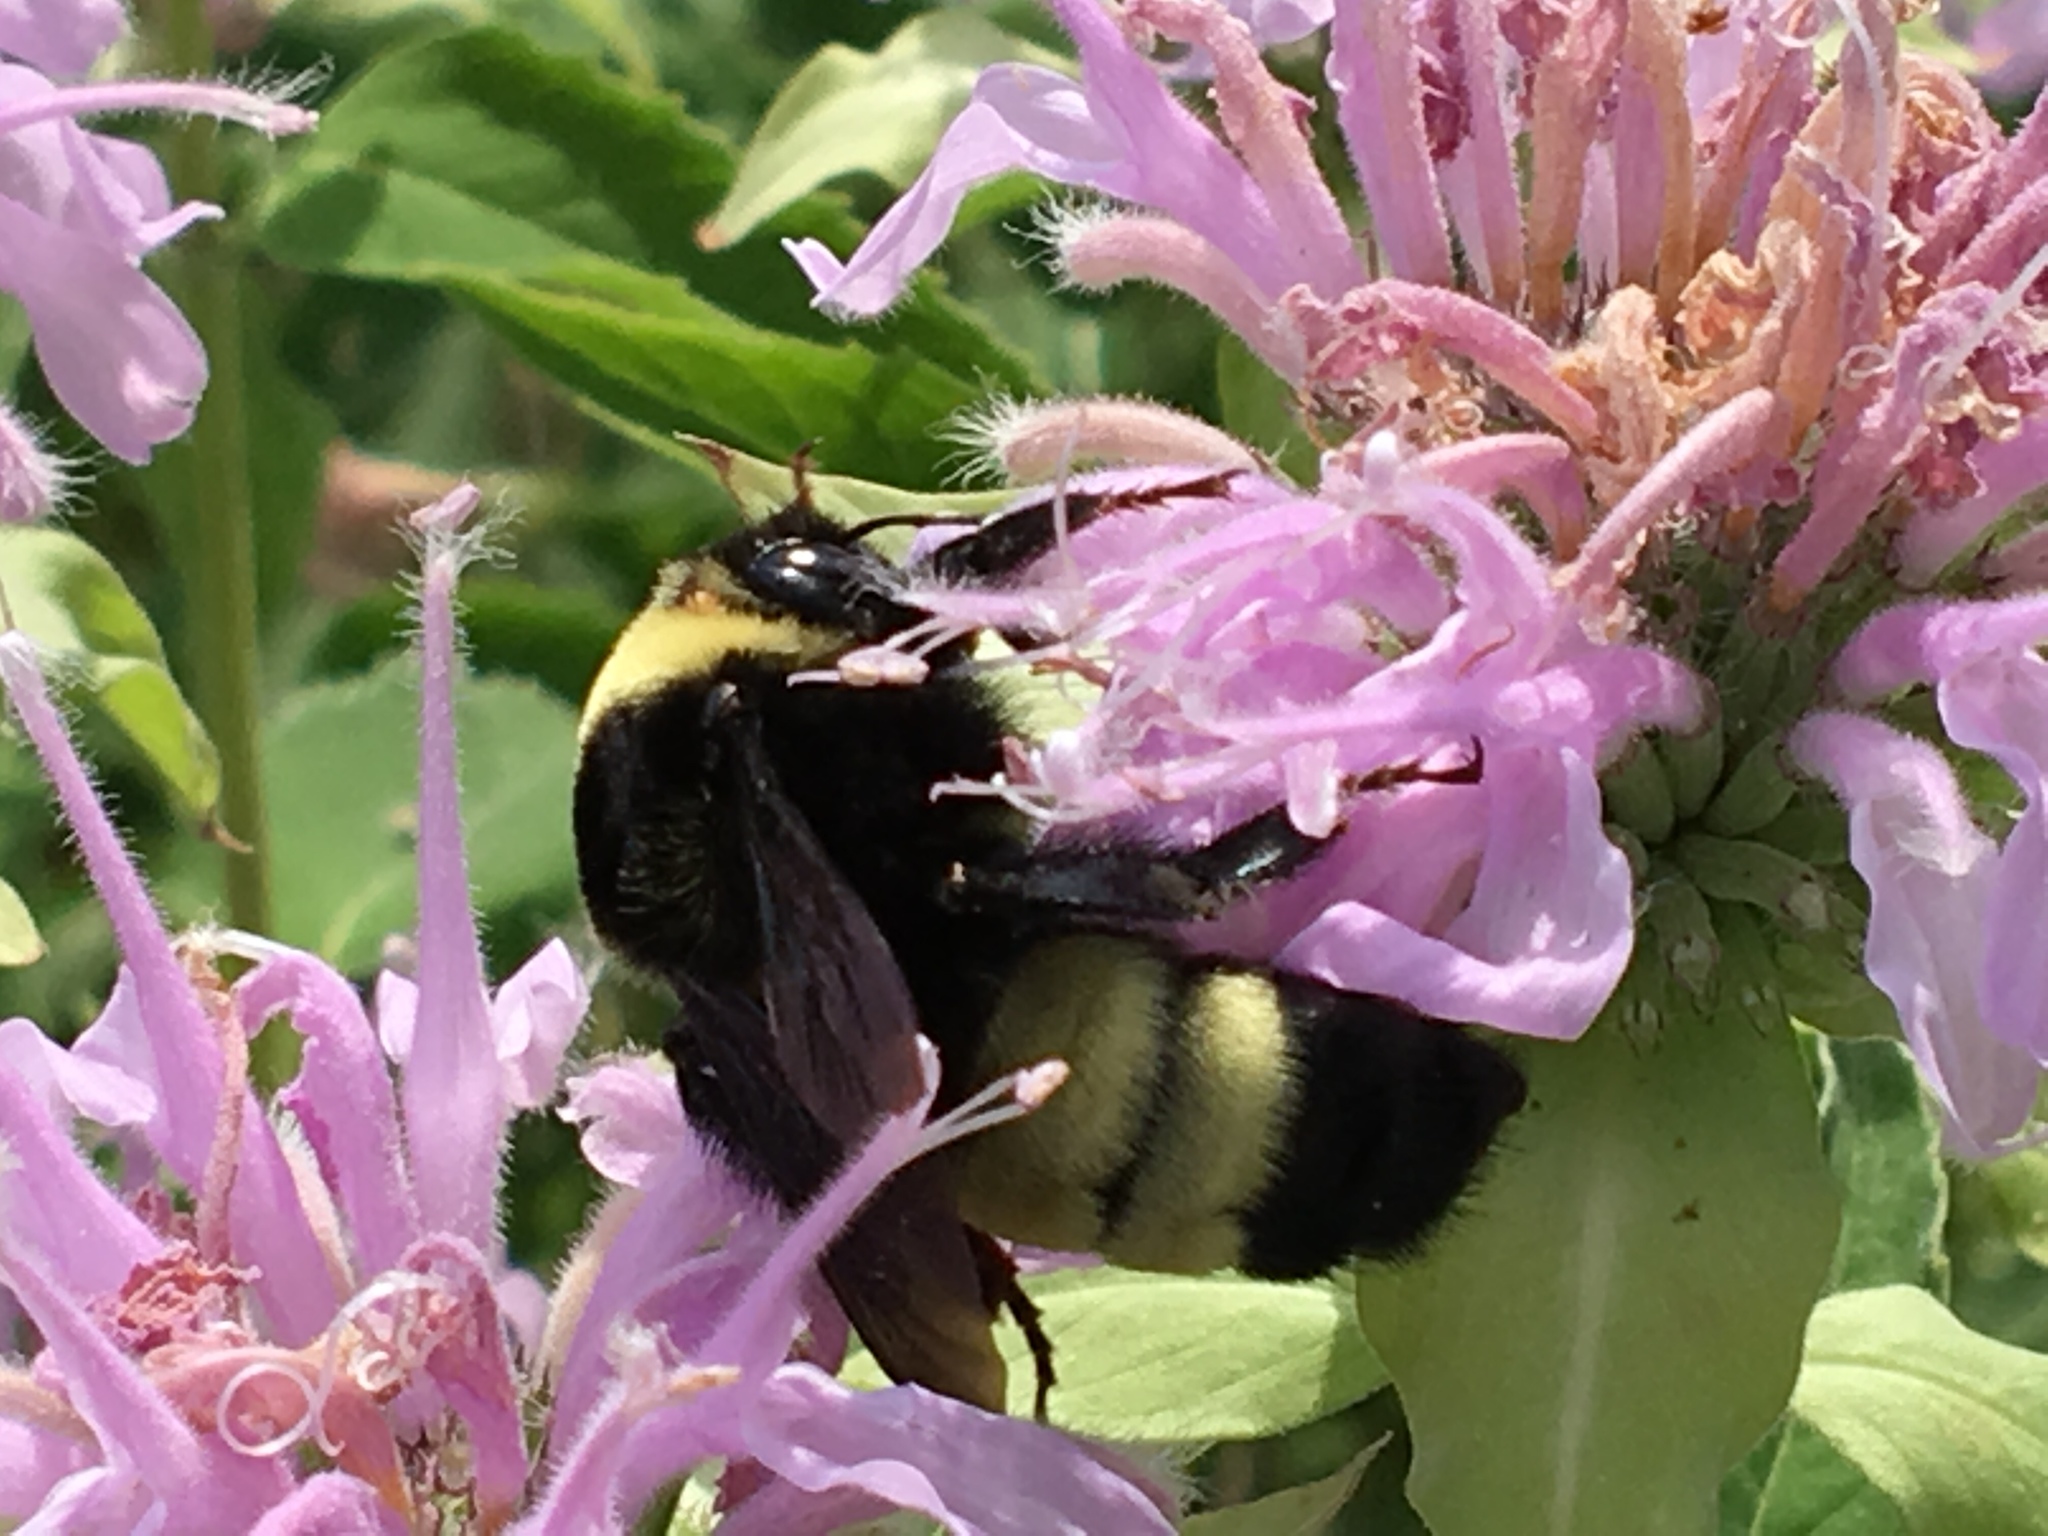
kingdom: Animalia
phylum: Arthropoda
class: Insecta
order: Hymenoptera
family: Apidae
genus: Bombus
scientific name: Bombus auricomus
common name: Black and gold bumble bee
